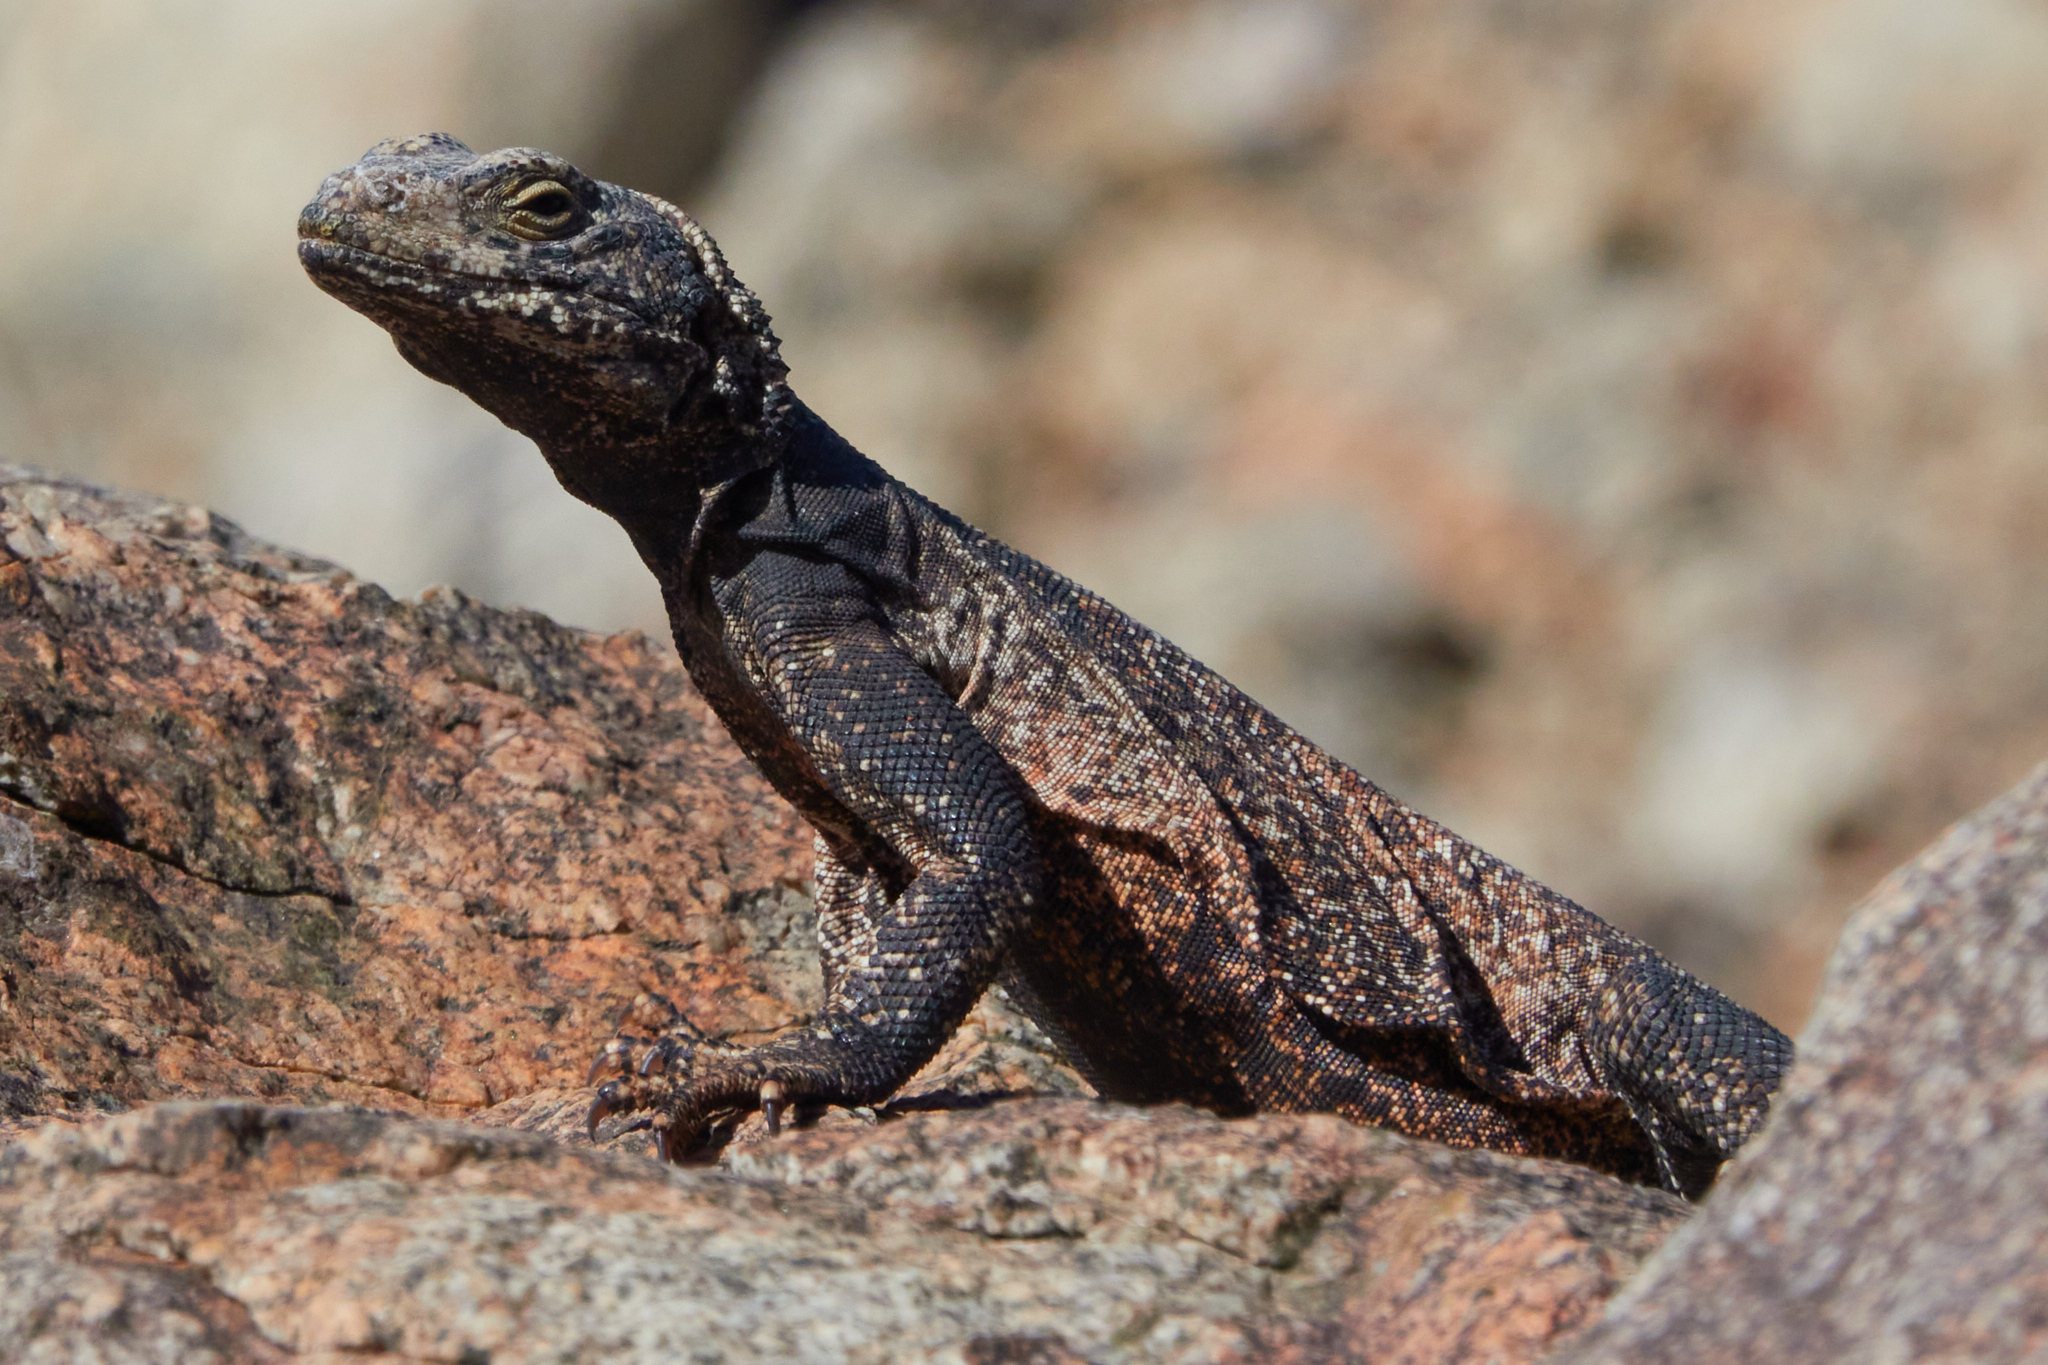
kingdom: Animalia
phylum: Chordata
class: Squamata
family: Iguanidae
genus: Sauromalus
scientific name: Sauromalus ater
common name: Northern chuckwalla
